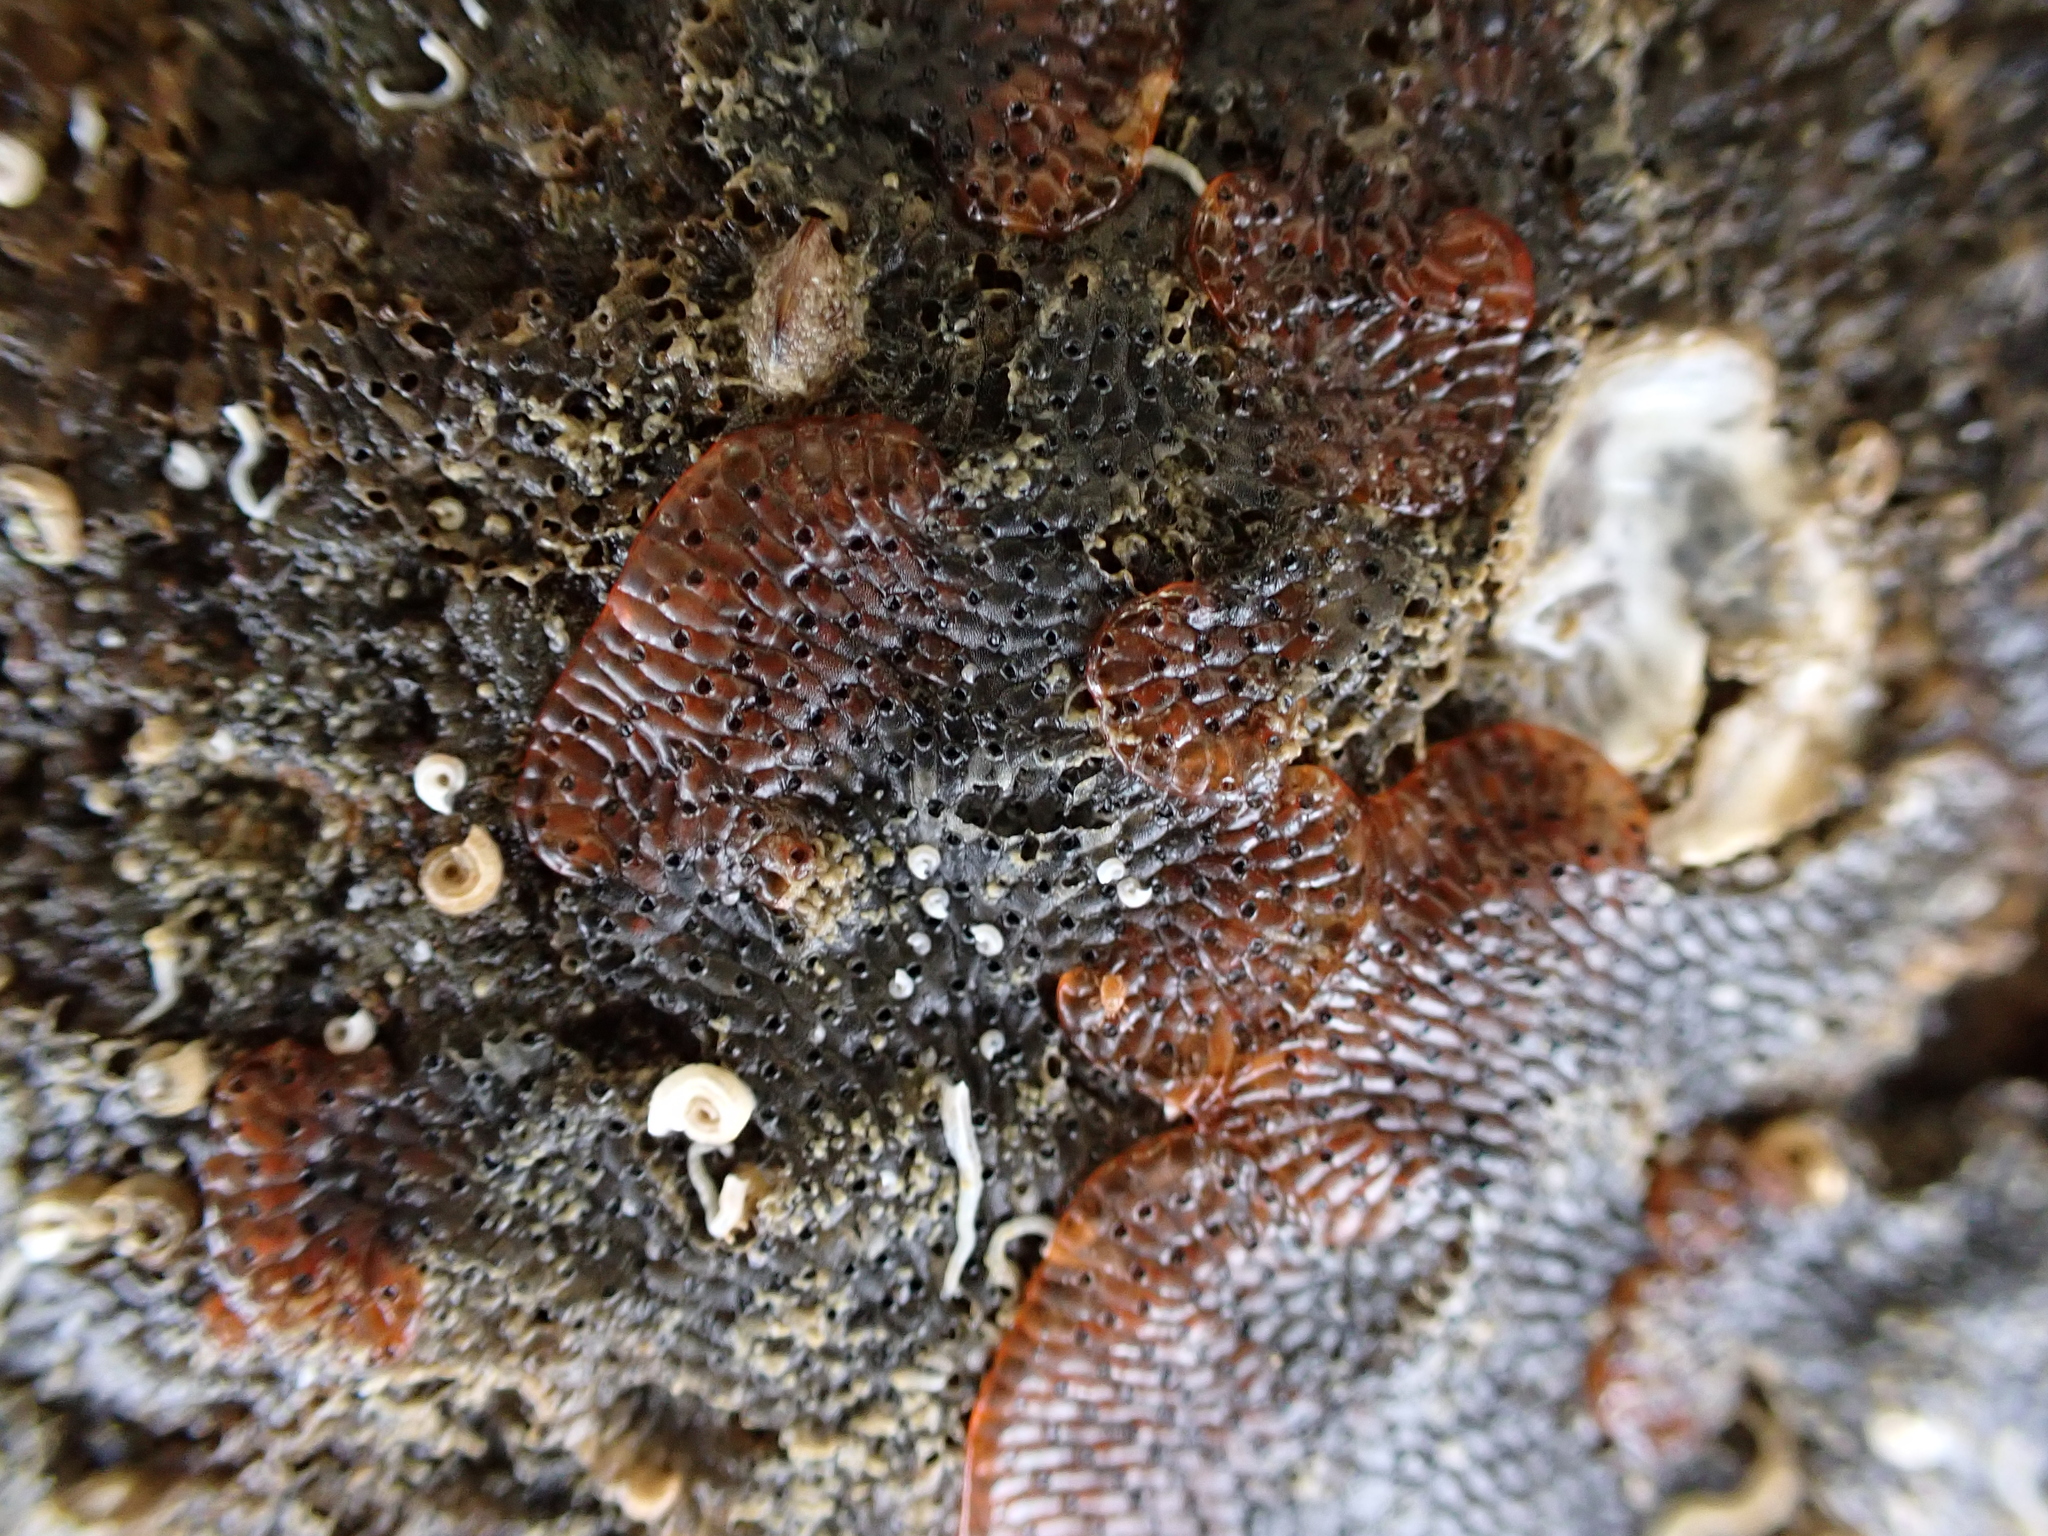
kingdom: Animalia
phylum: Bryozoa
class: Gymnolaemata
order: Cheilostomatida
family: Watersiporidae
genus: Watersipora
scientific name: Watersipora subatra
